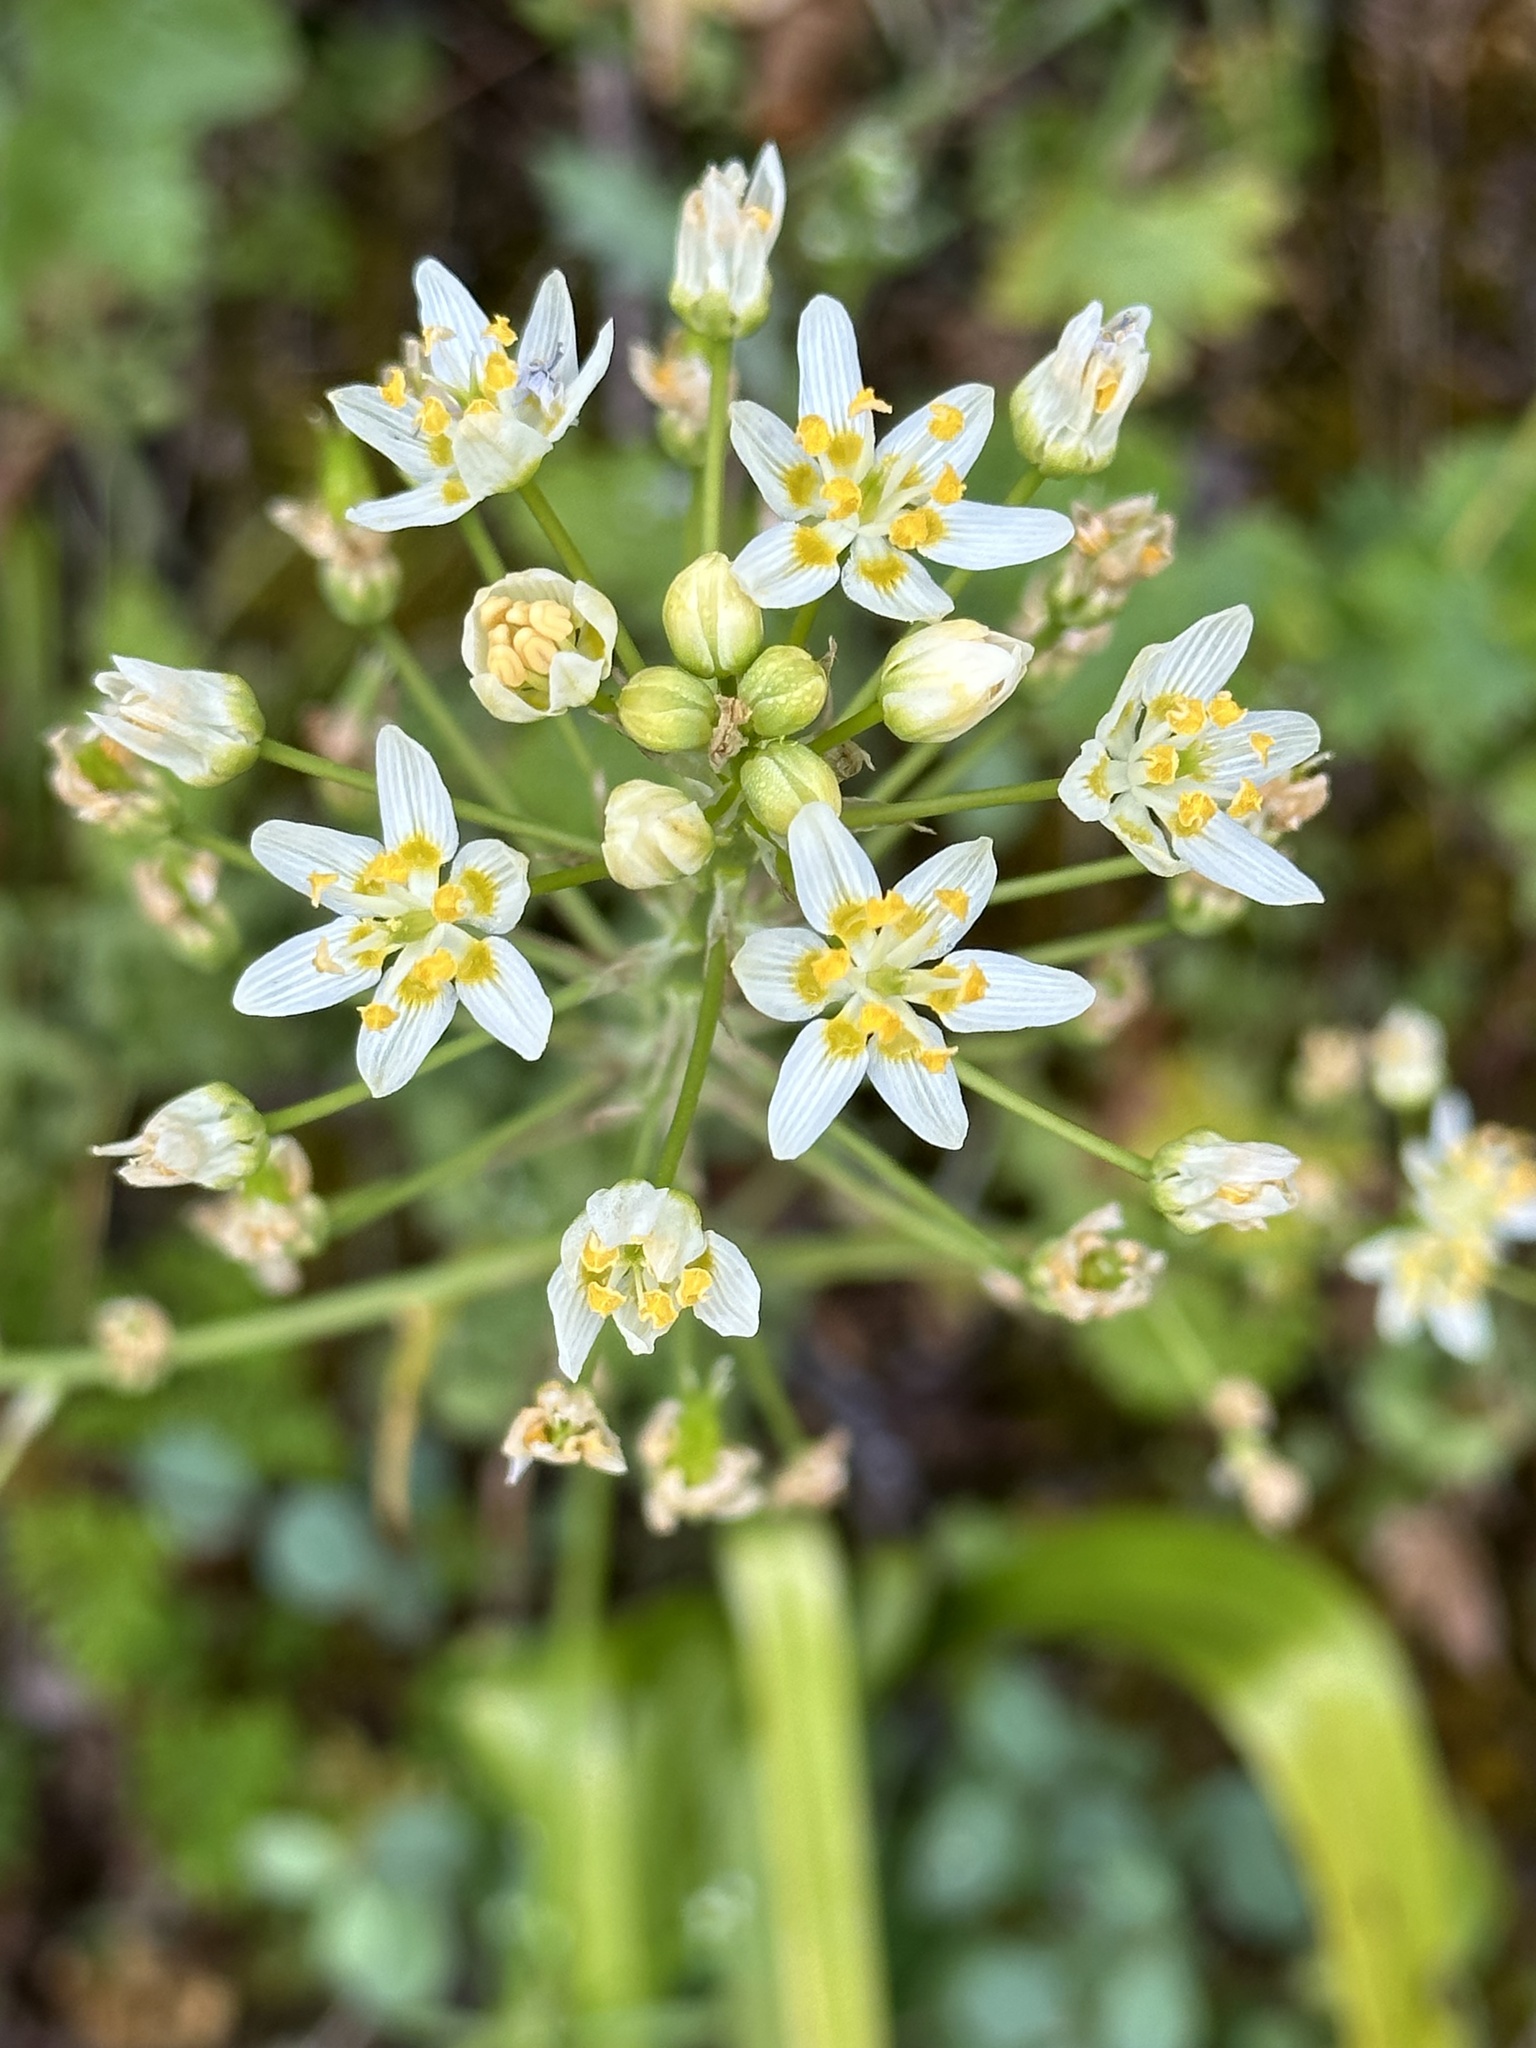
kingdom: Plantae
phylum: Tracheophyta
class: Liliopsida
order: Liliales
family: Melanthiaceae
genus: Toxicoscordion
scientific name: Toxicoscordion fremontii
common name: Fremont's death camas
